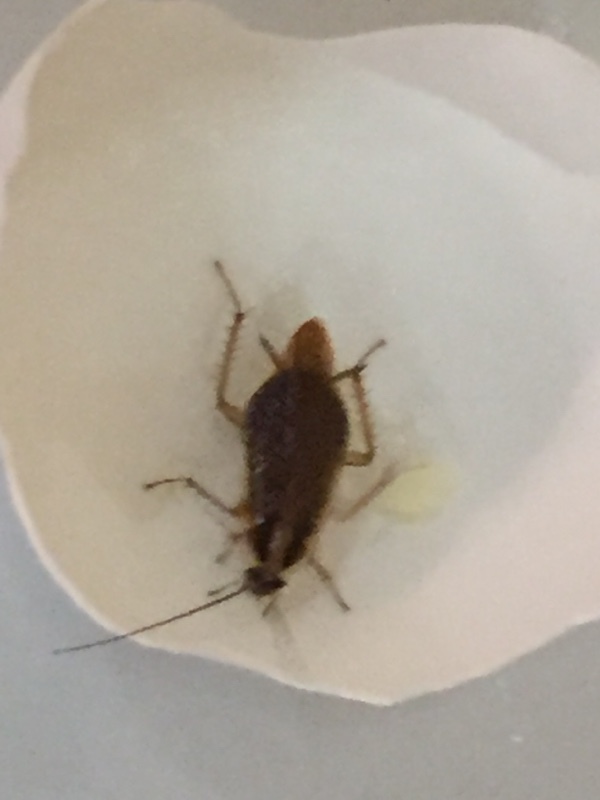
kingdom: Animalia
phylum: Arthropoda
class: Insecta
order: Blattodea
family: Ectobiidae
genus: Blattella
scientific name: Blattella germanica
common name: German cockroach
